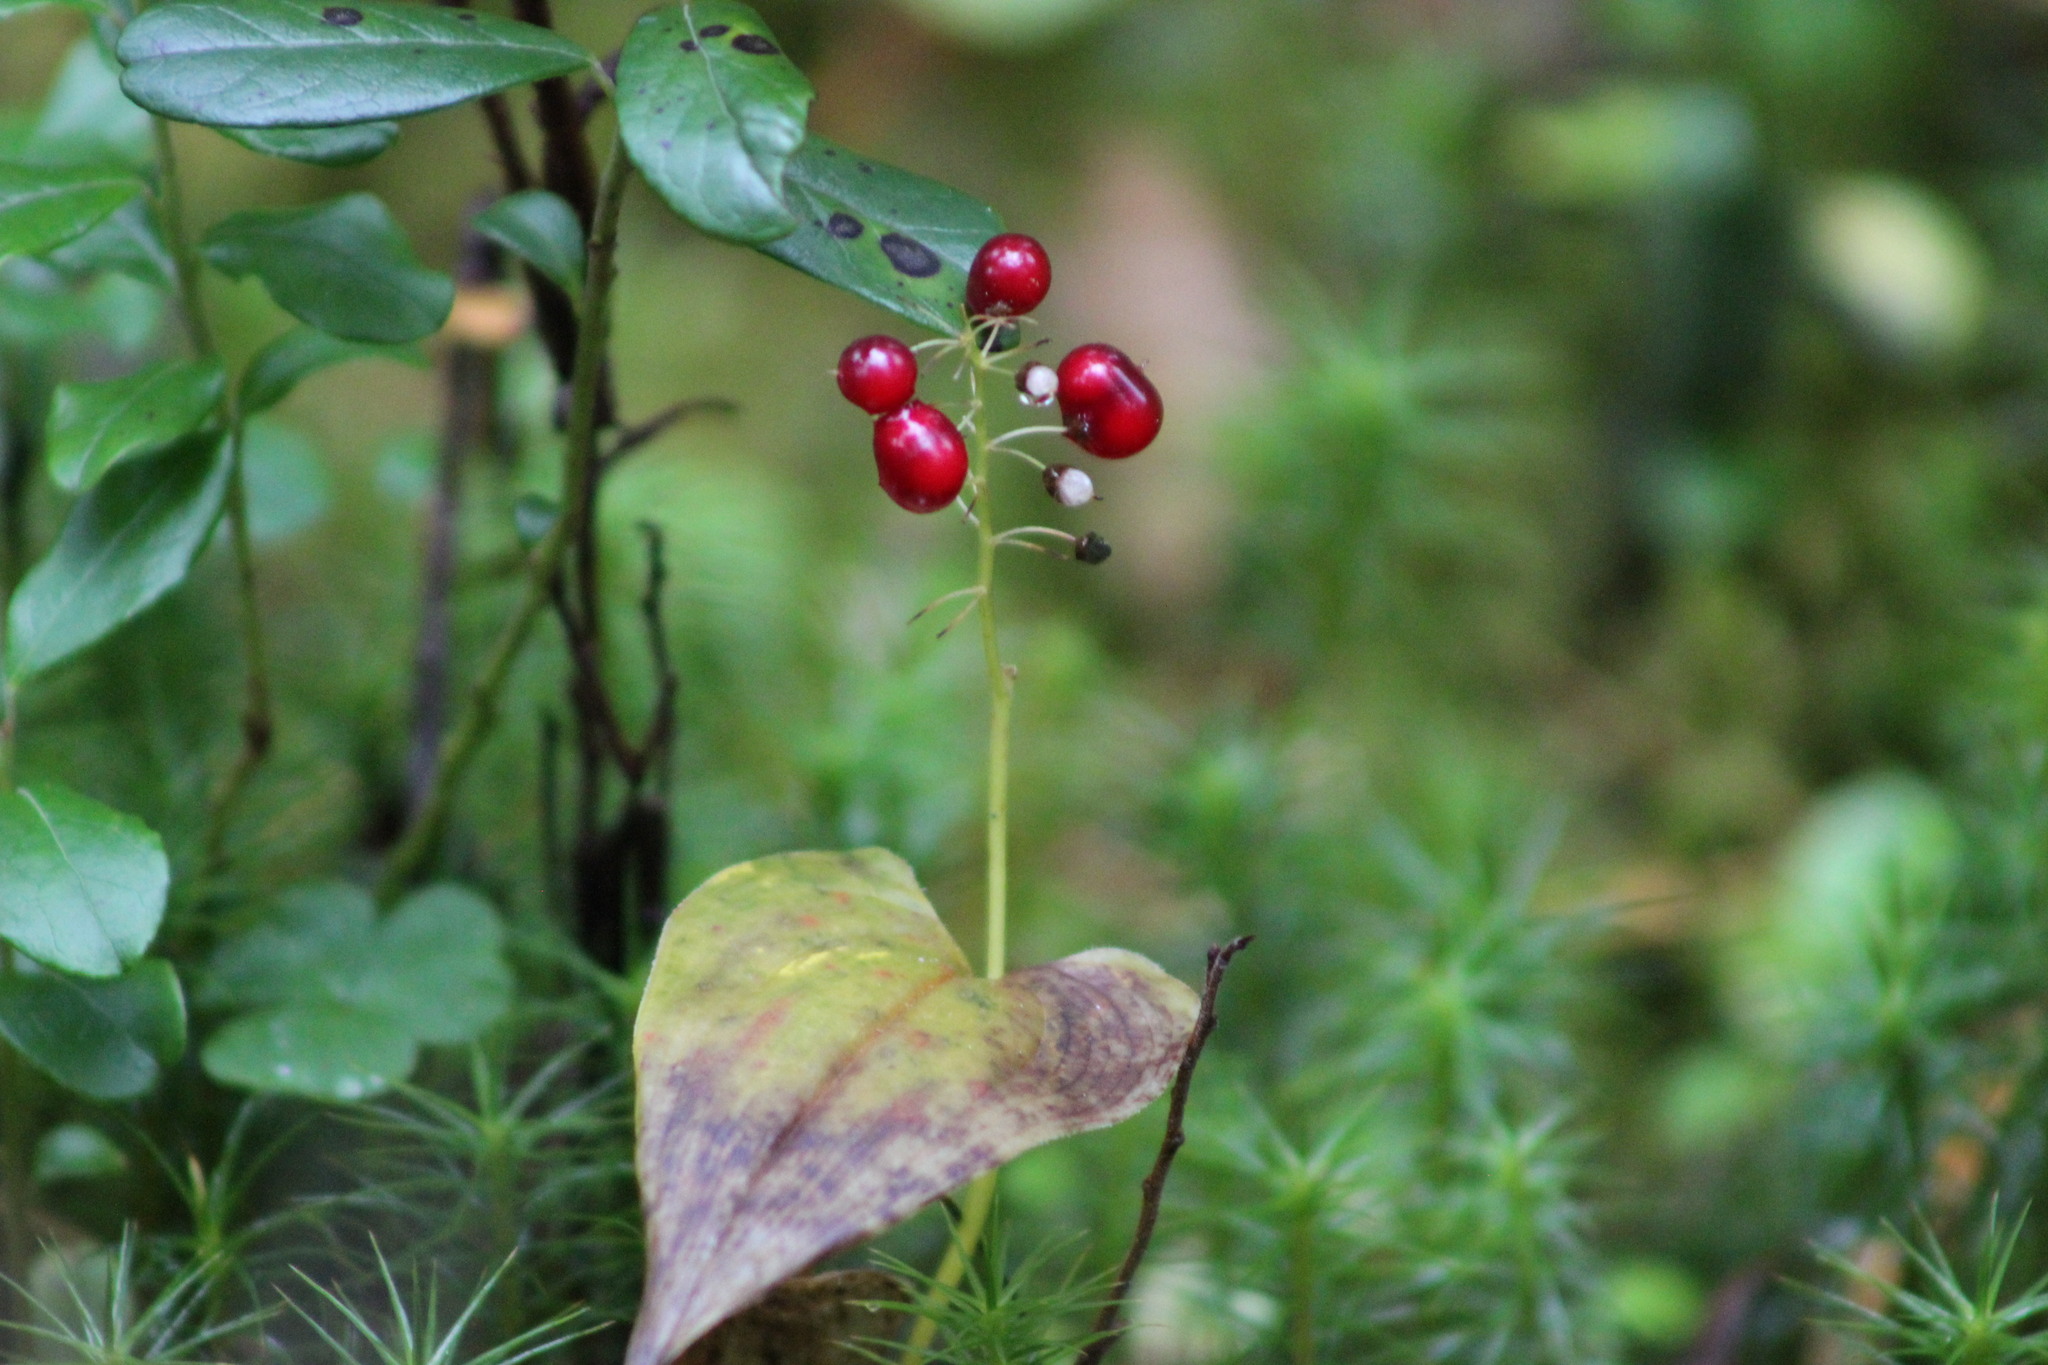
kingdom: Plantae
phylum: Tracheophyta
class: Liliopsida
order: Asparagales
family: Asparagaceae
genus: Maianthemum
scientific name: Maianthemum bifolium
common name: May lily
